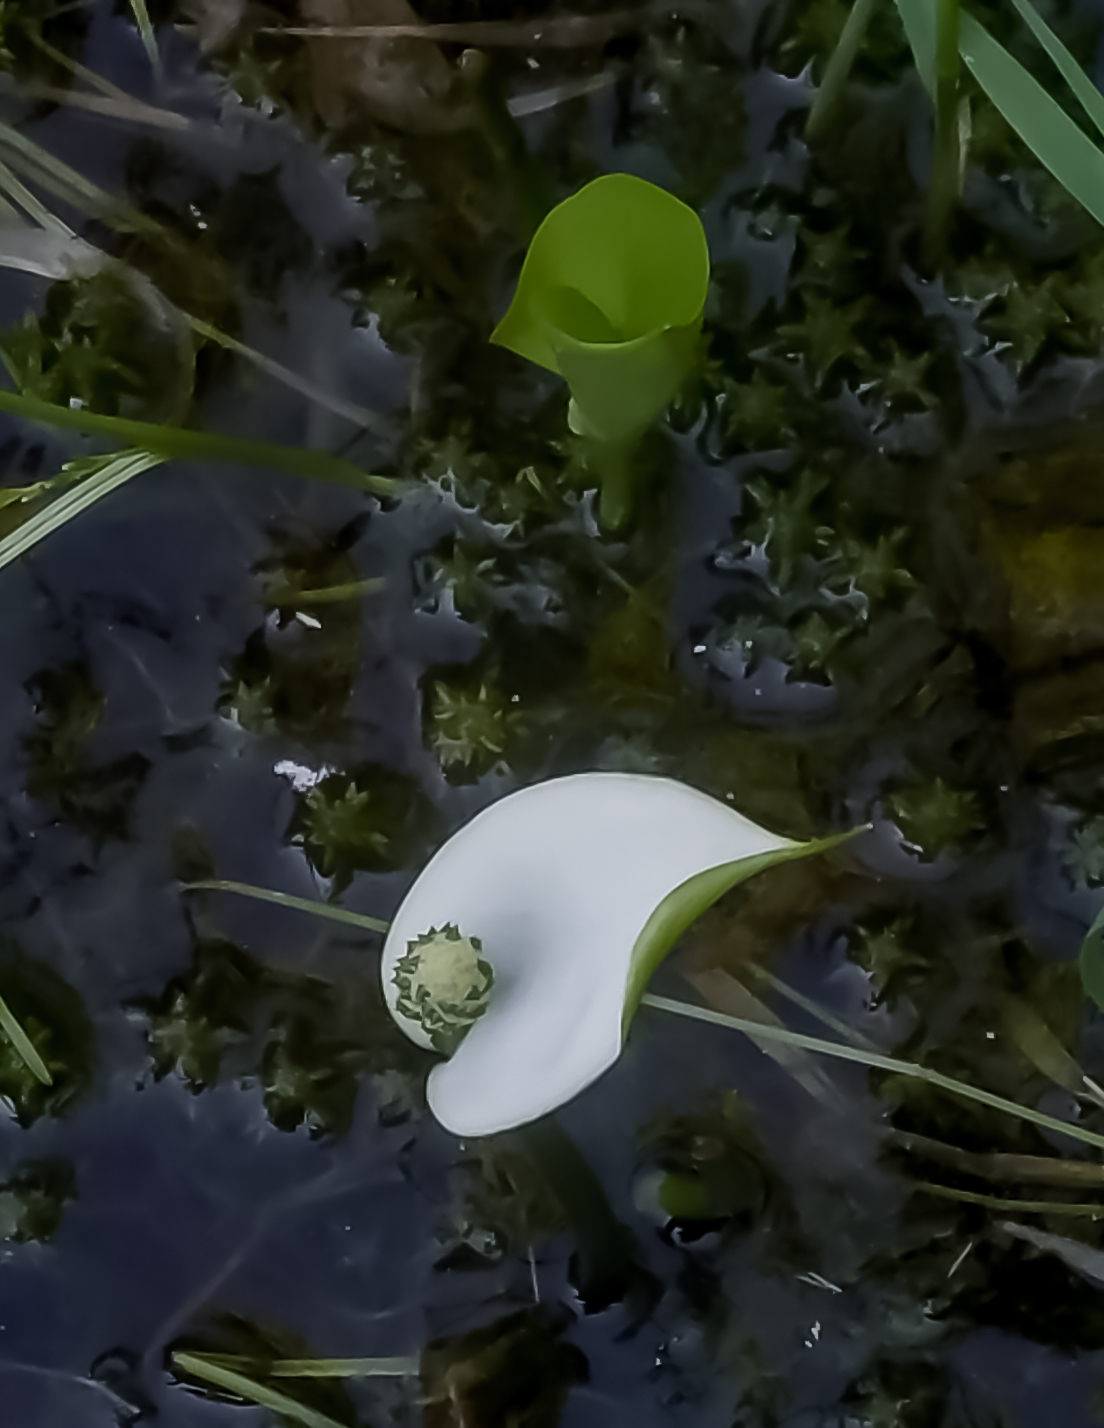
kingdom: Plantae
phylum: Tracheophyta
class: Liliopsida
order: Alismatales
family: Araceae
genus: Calla
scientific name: Calla palustris
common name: Bog arum
